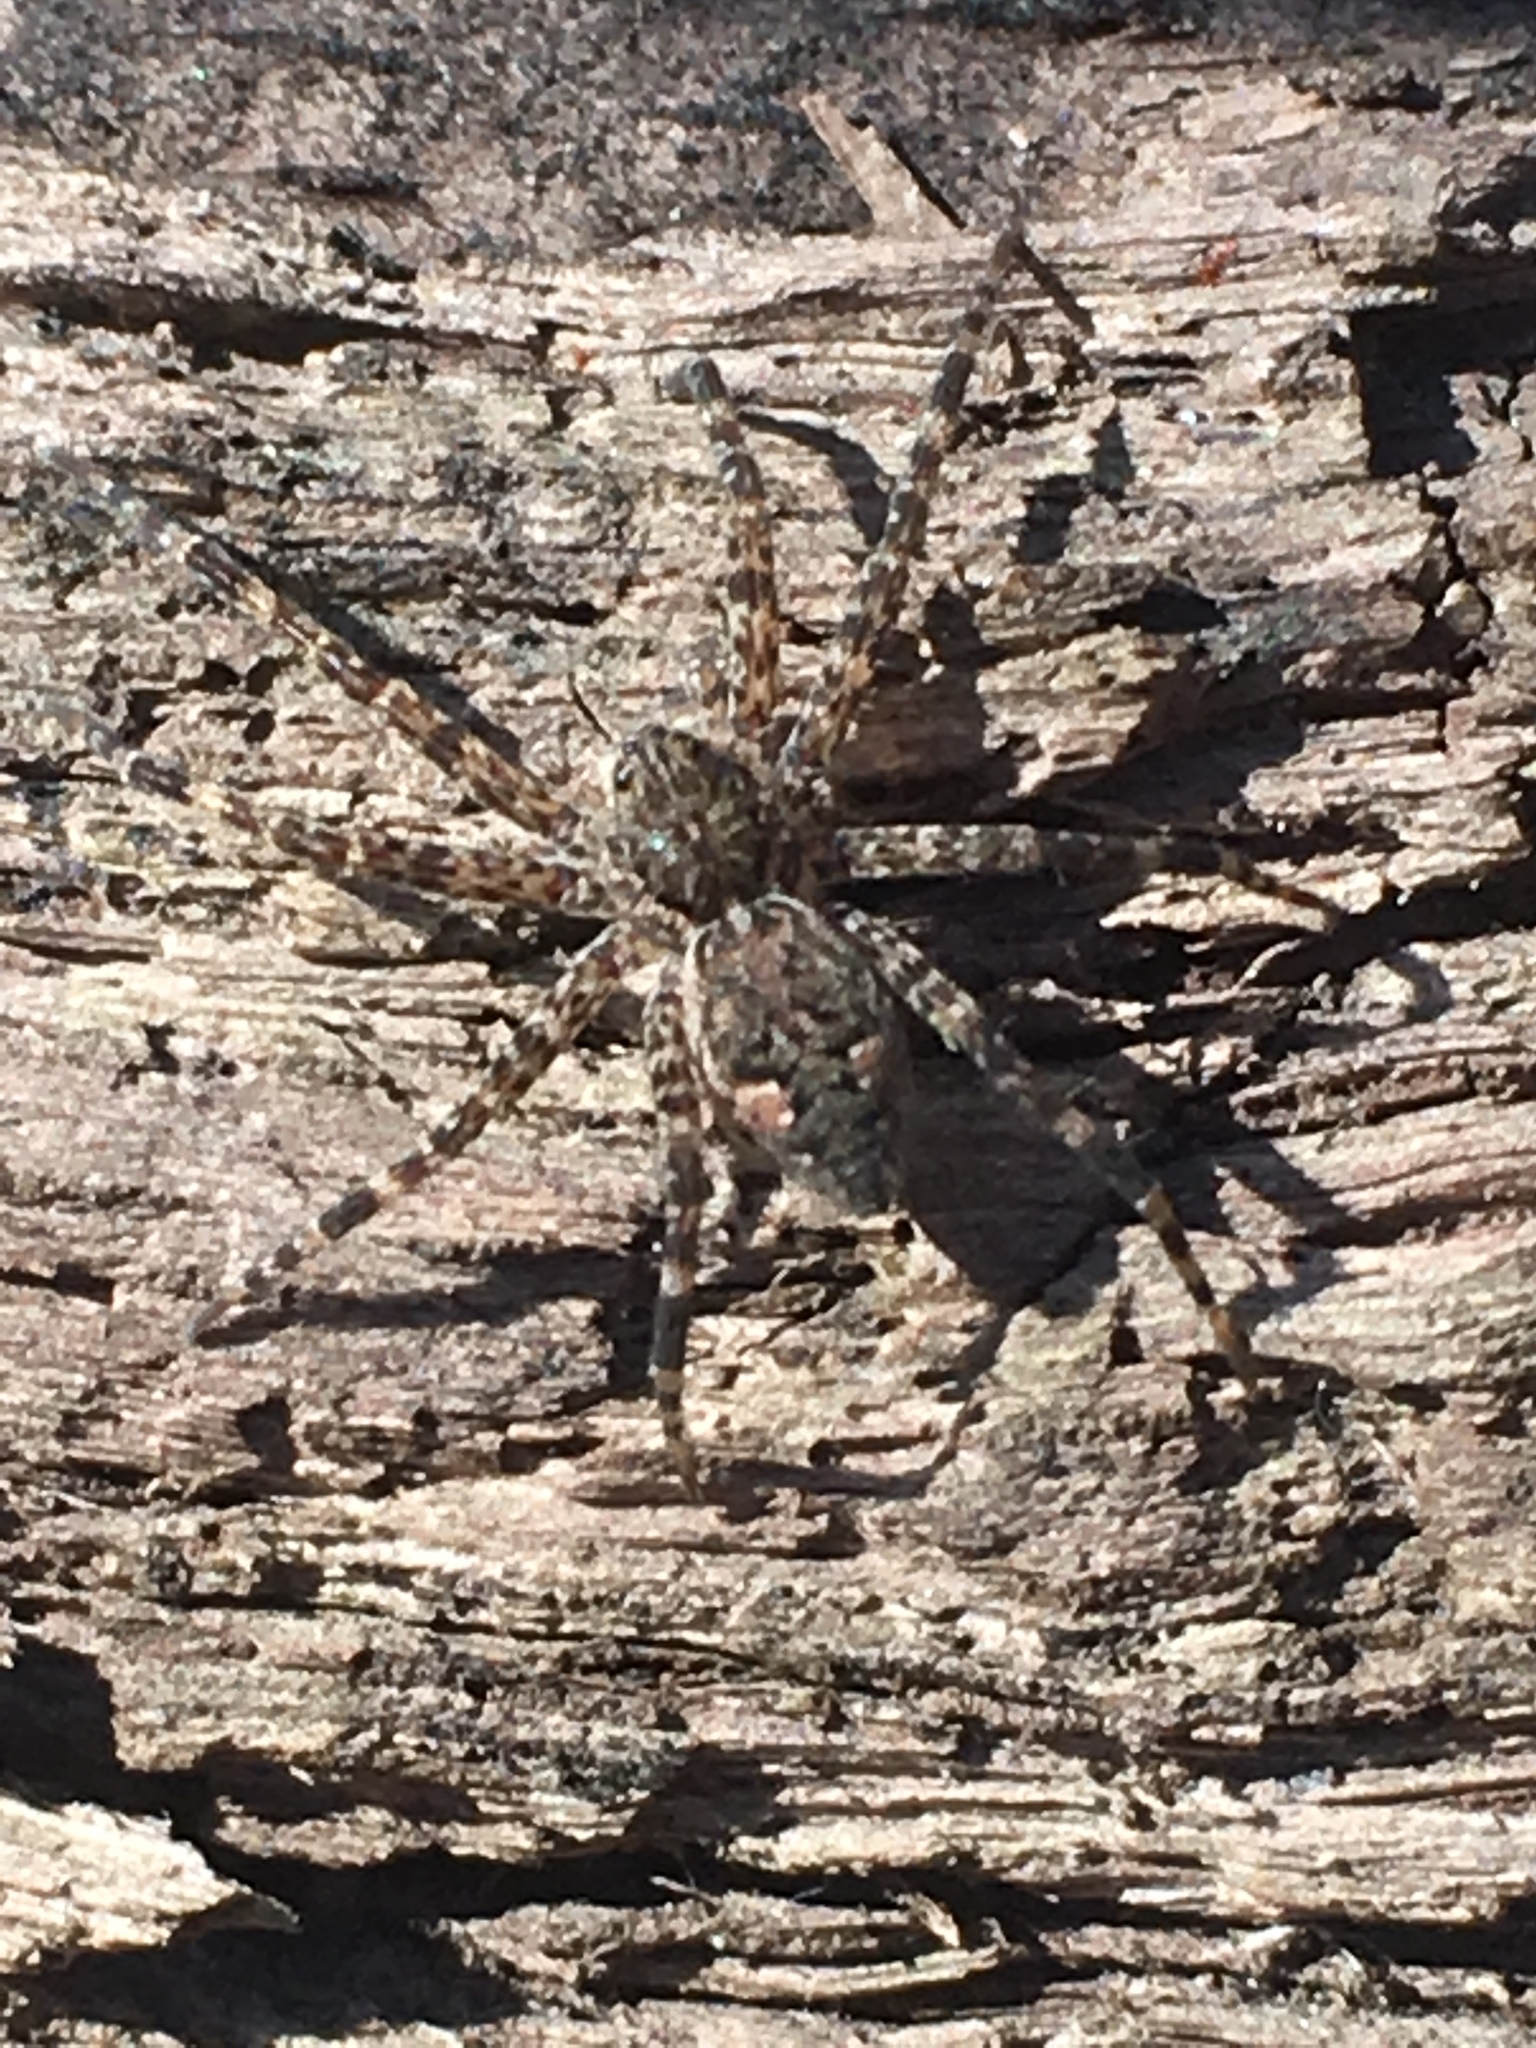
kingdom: Animalia
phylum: Arthropoda
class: Arachnida
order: Araneae
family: Pisauridae
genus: Dolomedes
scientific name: Dolomedes tenebrosus
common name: Dark fishing spider
